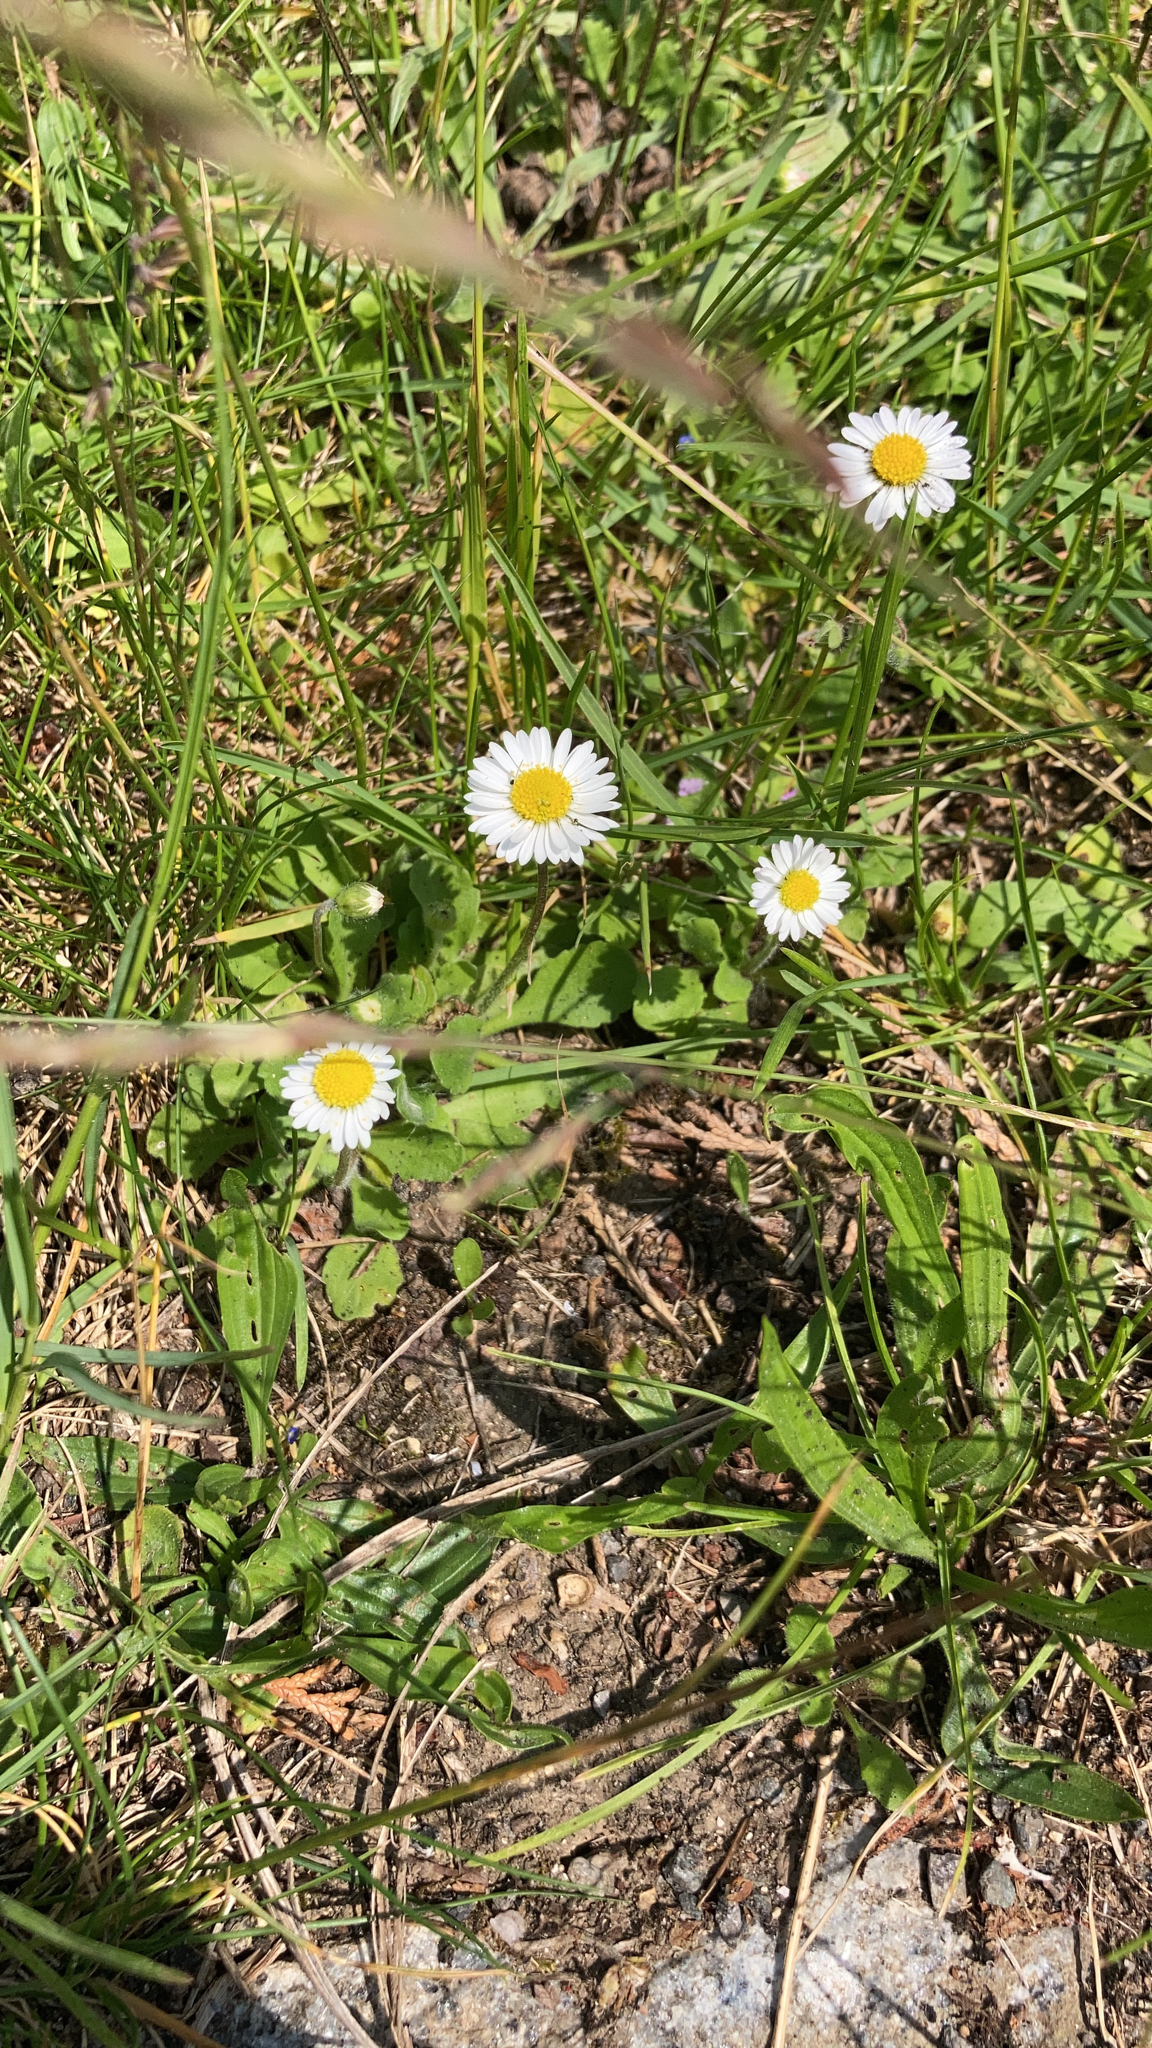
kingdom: Plantae
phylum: Tracheophyta
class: Magnoliopsida
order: Asterales
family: Asteraceae
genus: Bellis
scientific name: Bellis perennis
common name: Lawndaisy
